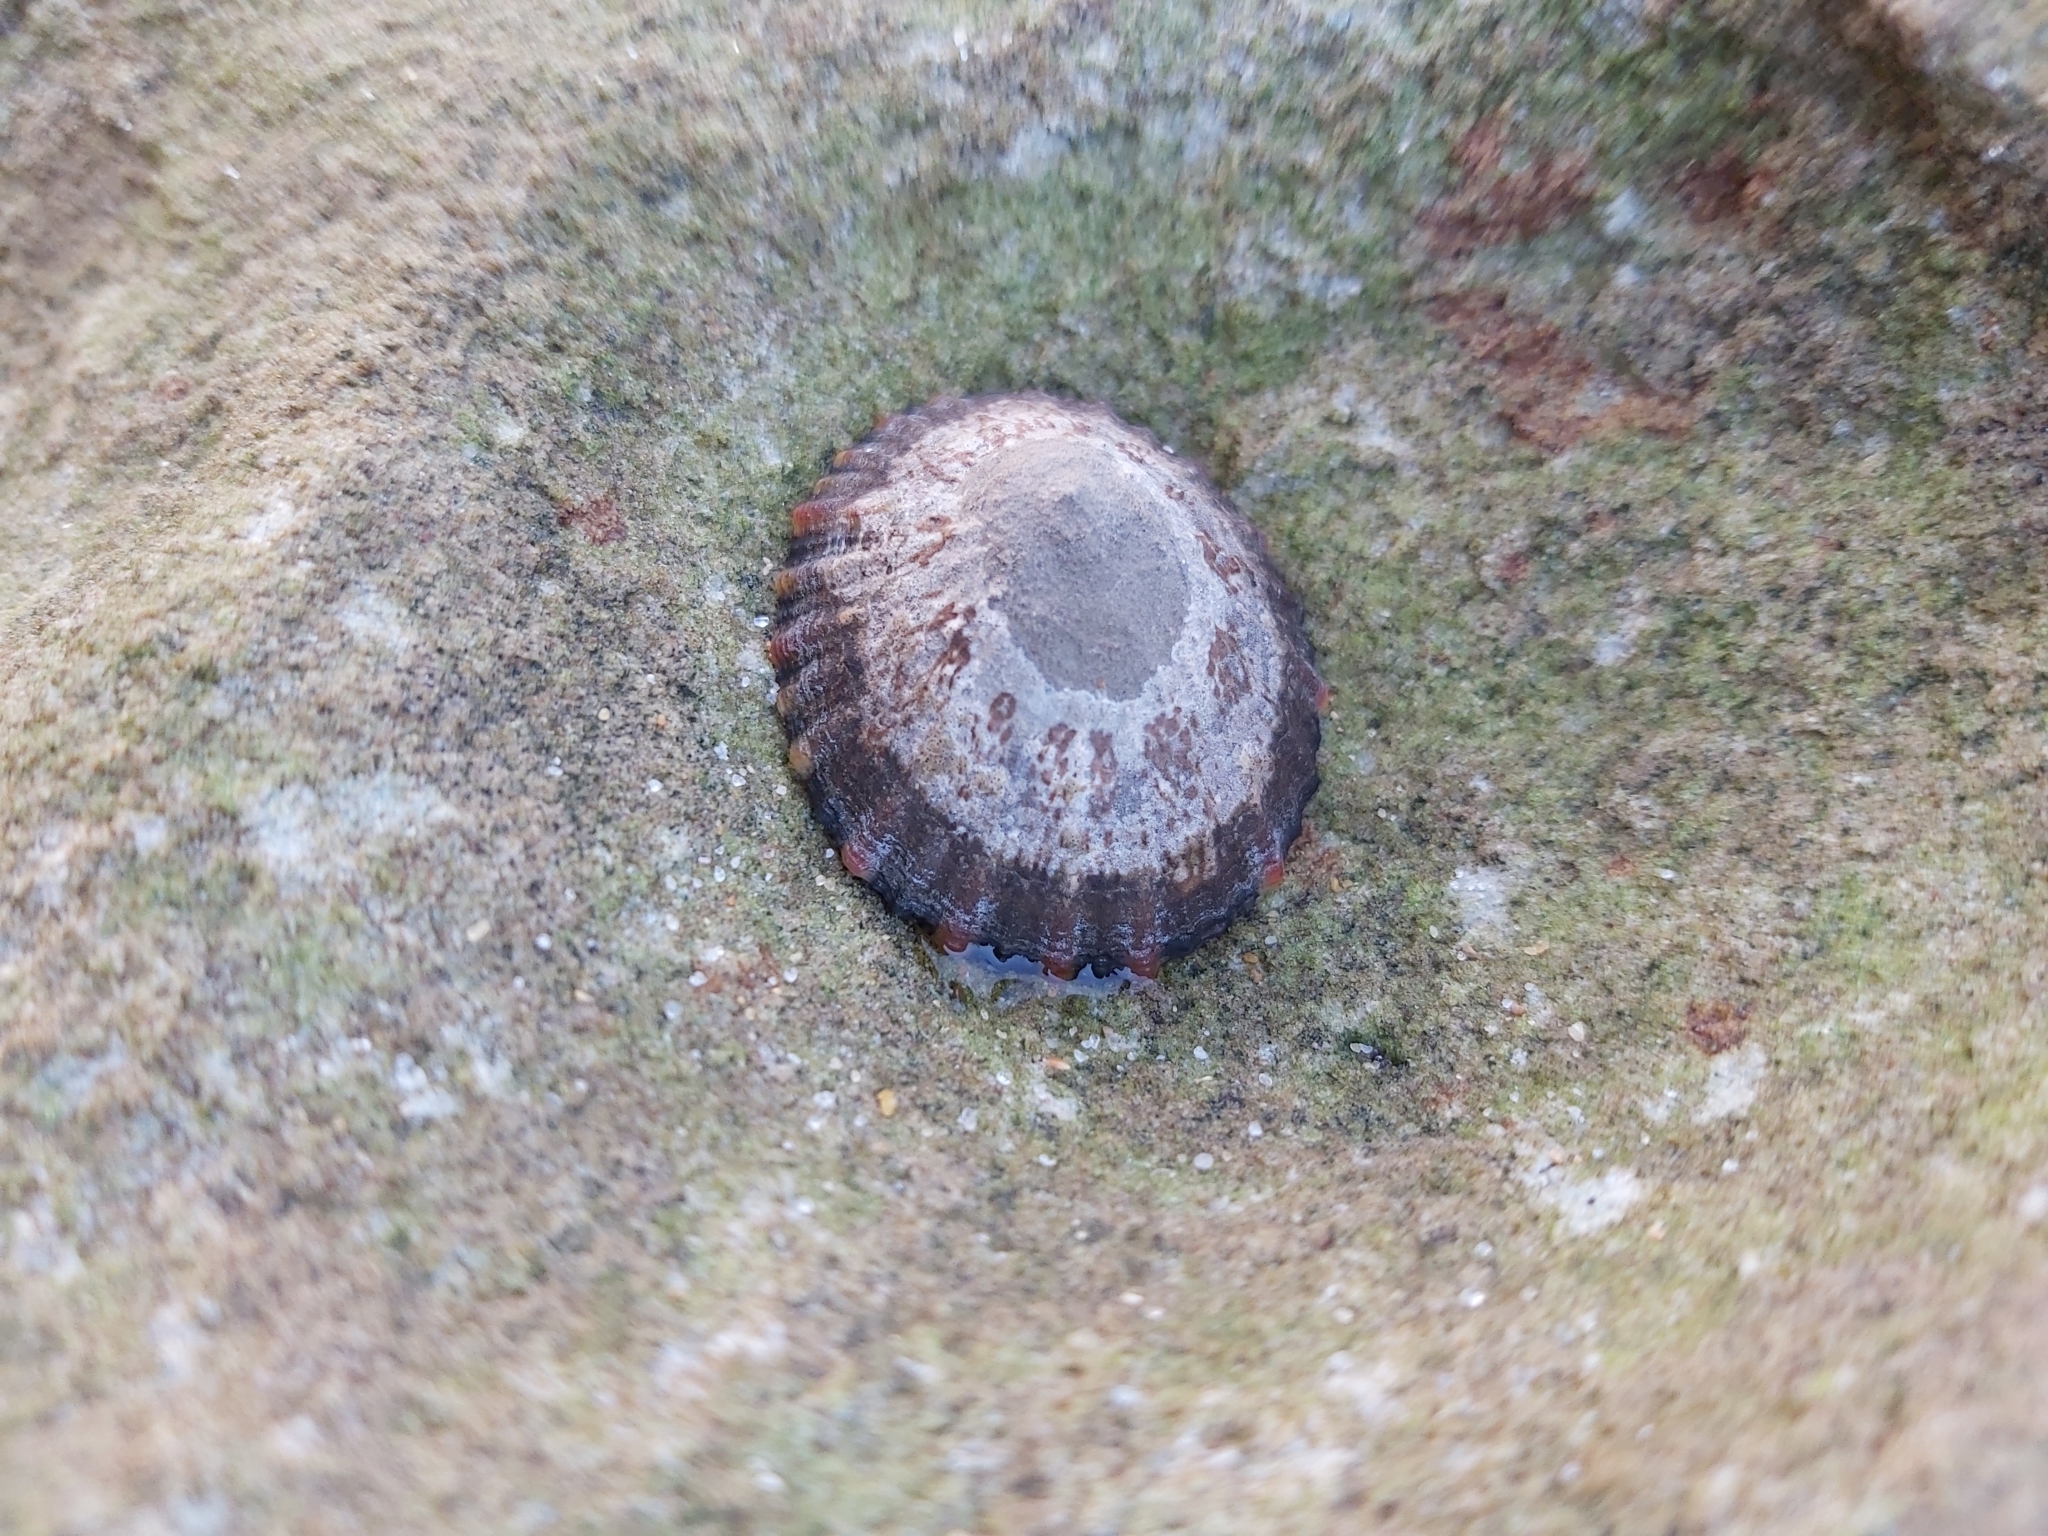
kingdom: Animalia
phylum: Mollusca
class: Gastropoda
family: Nacellidae
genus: Cellana
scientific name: Cellana tramoserica
